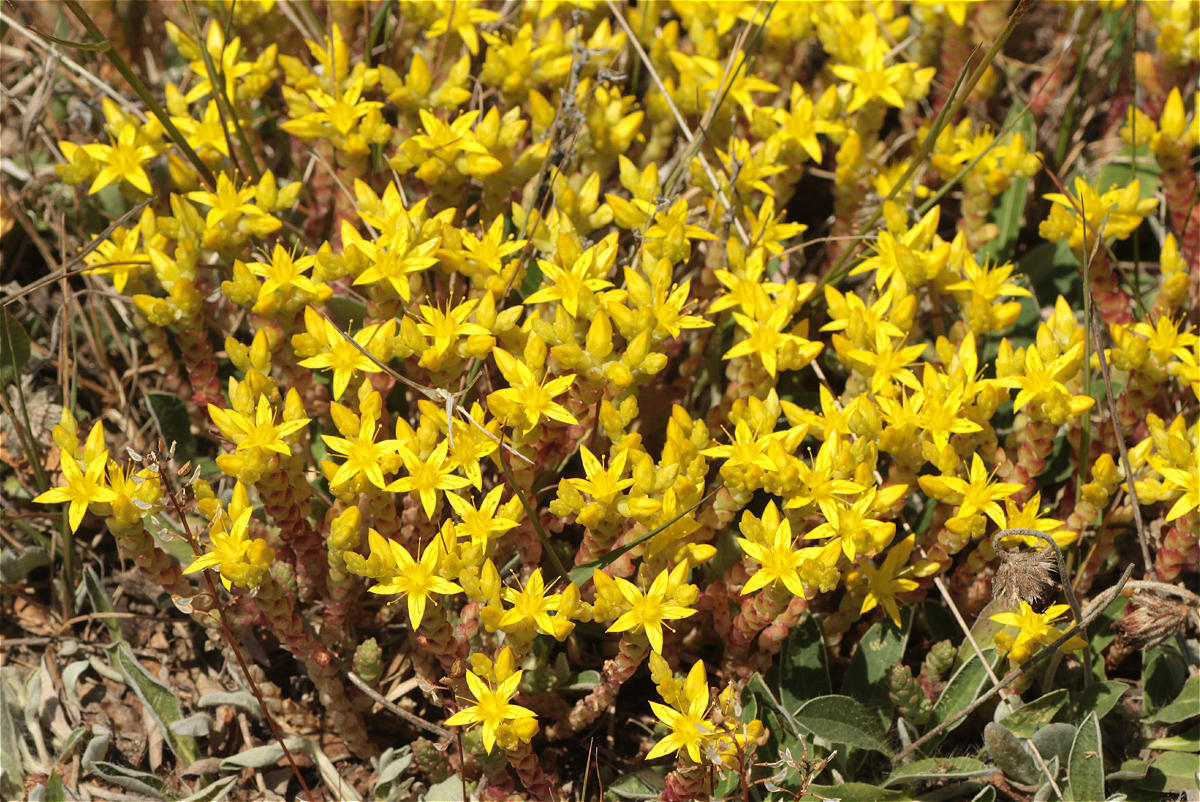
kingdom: Plantae
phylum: Tracheophyta
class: Magnoliopsida
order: Saxifragales
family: Crassulaceae
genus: Sedum
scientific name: Sedum acre
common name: Biting stonecrop
